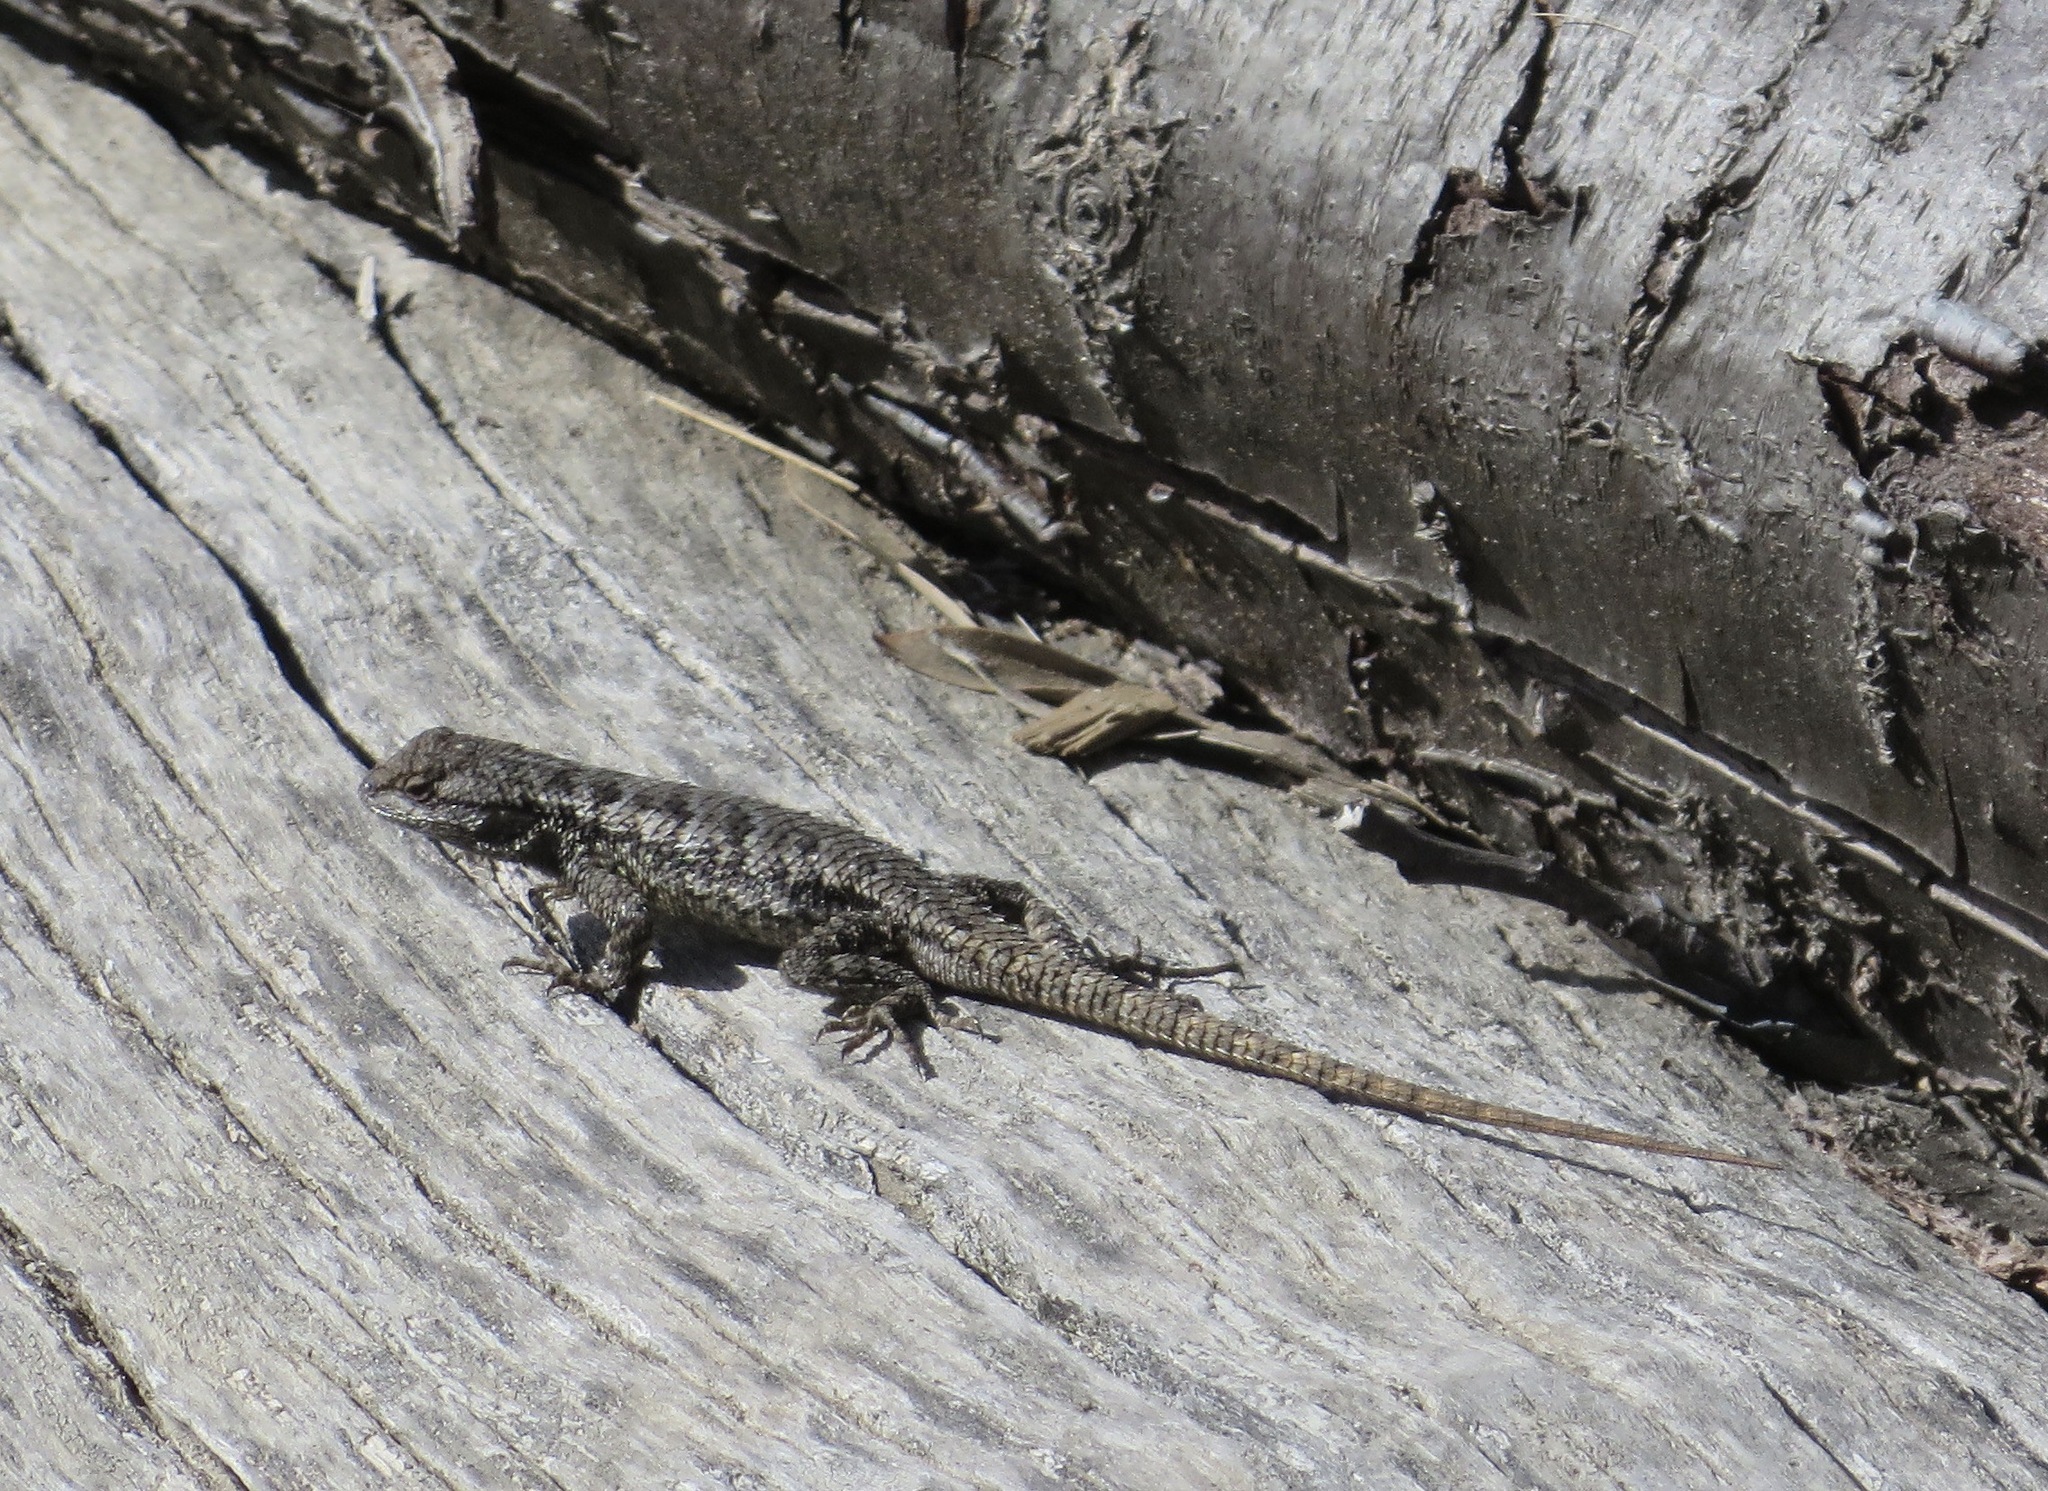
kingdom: Animalia
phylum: Chordata
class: Squamata
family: Phrynosomatidae
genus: Sceloporus
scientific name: Sceloporus occidentalis
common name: Western fence lizard
